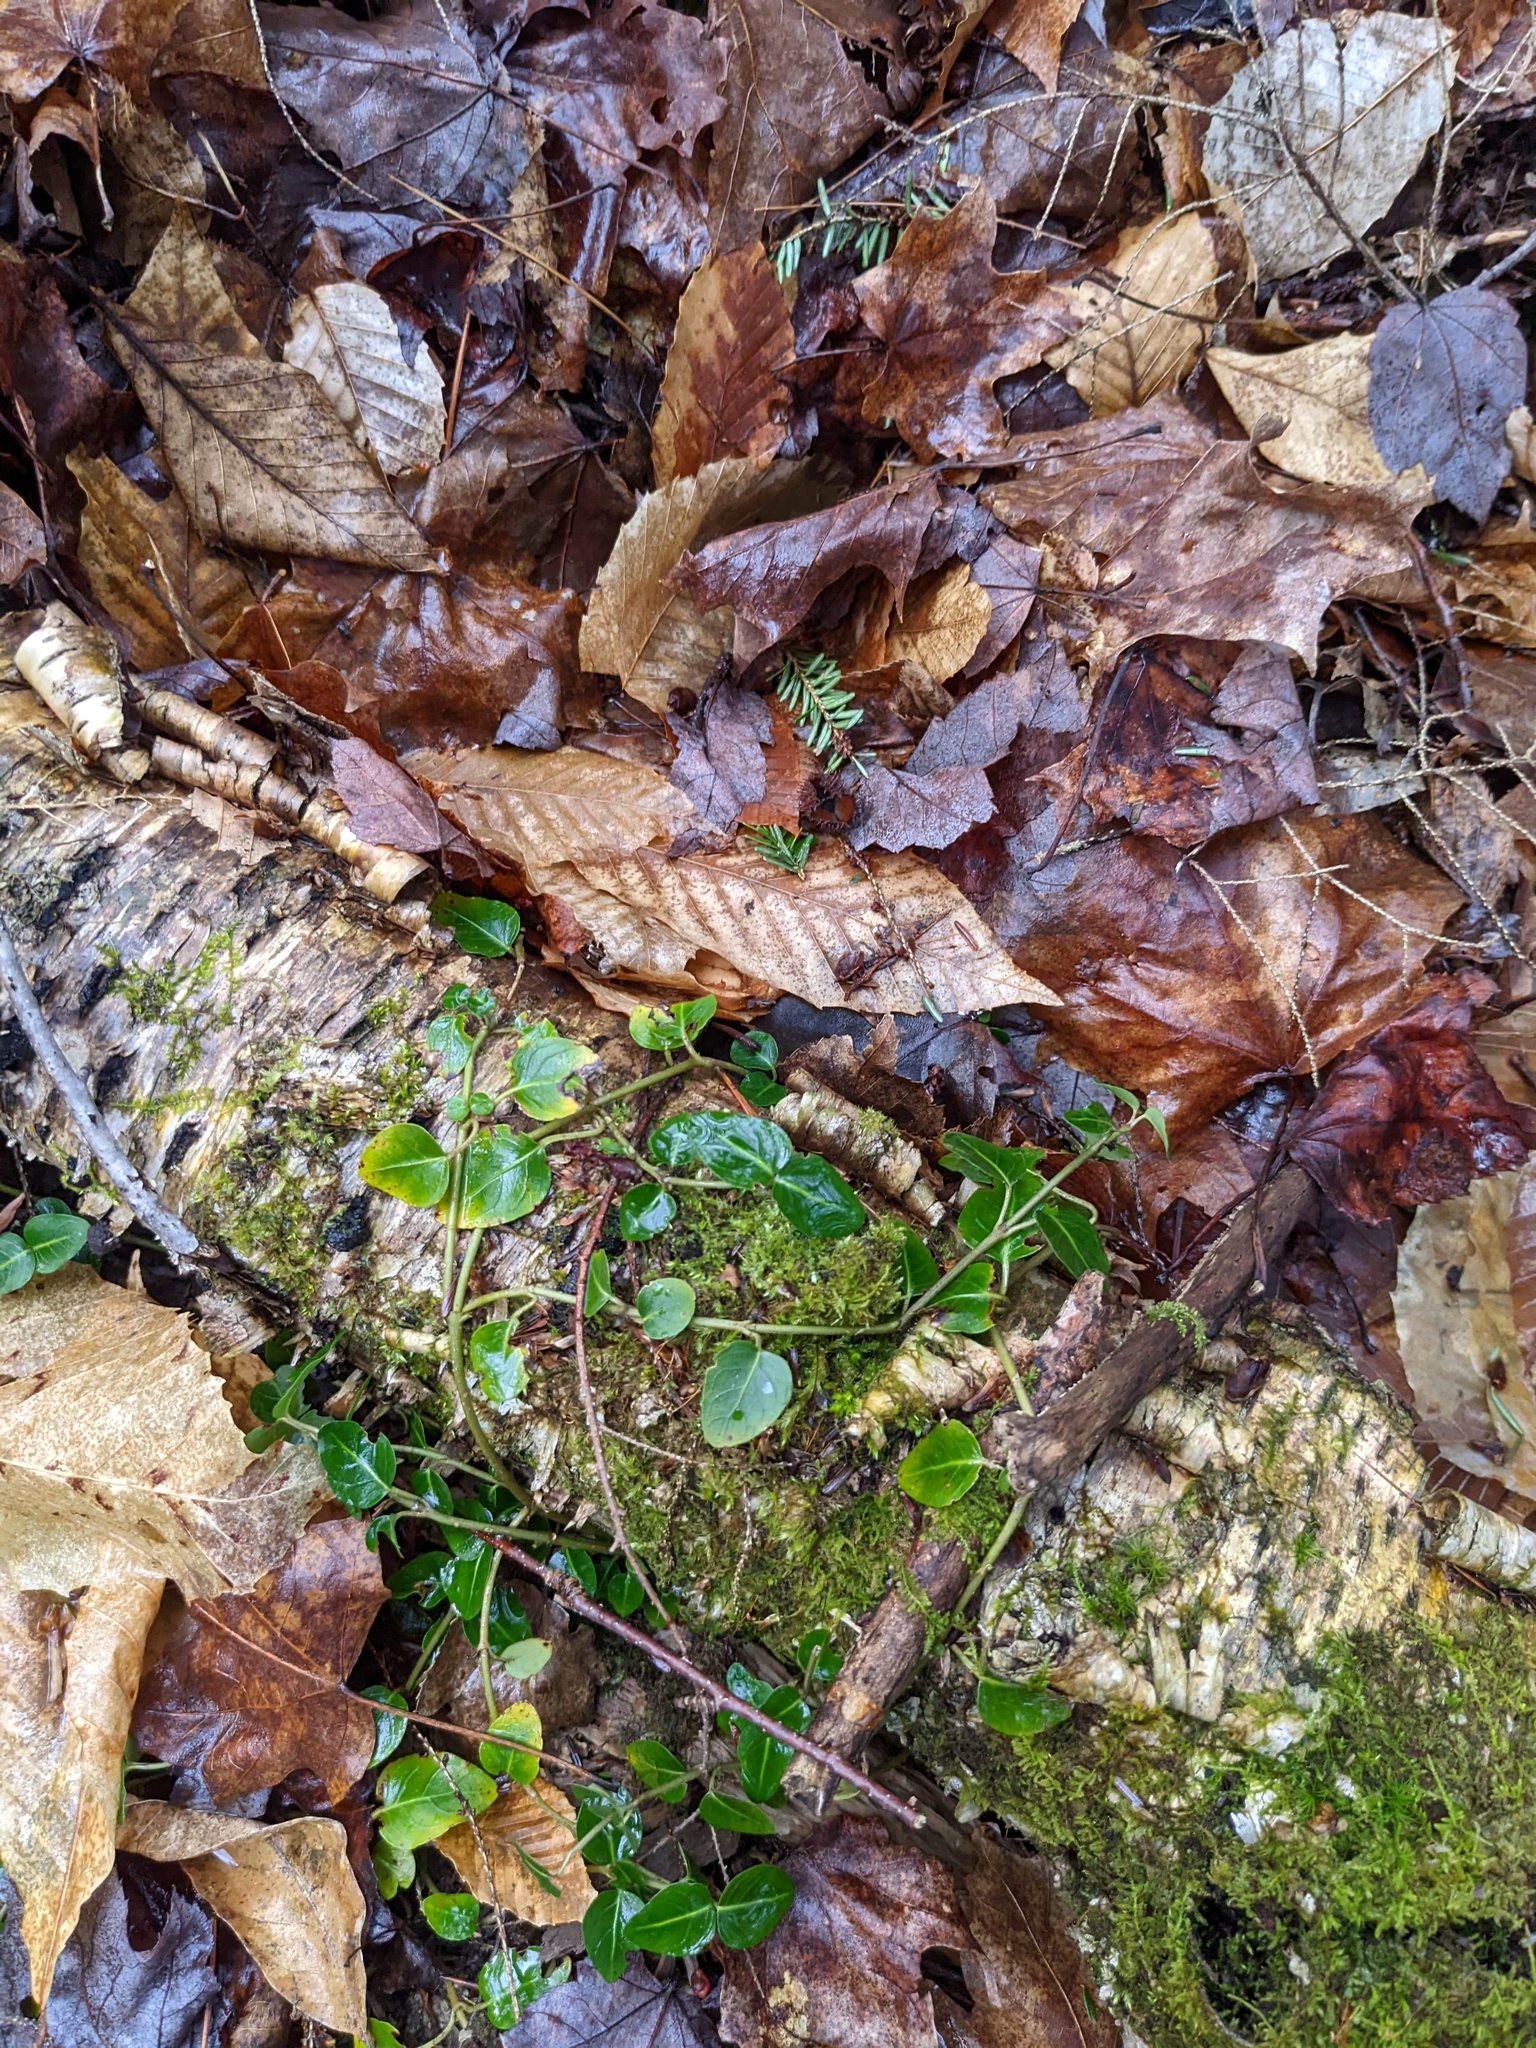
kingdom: Plantae
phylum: Tracheophyta
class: Magnoliopsida
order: Fagales
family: Betulaceae
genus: Betula
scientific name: Betula alleghaniensis
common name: Yellow birch
